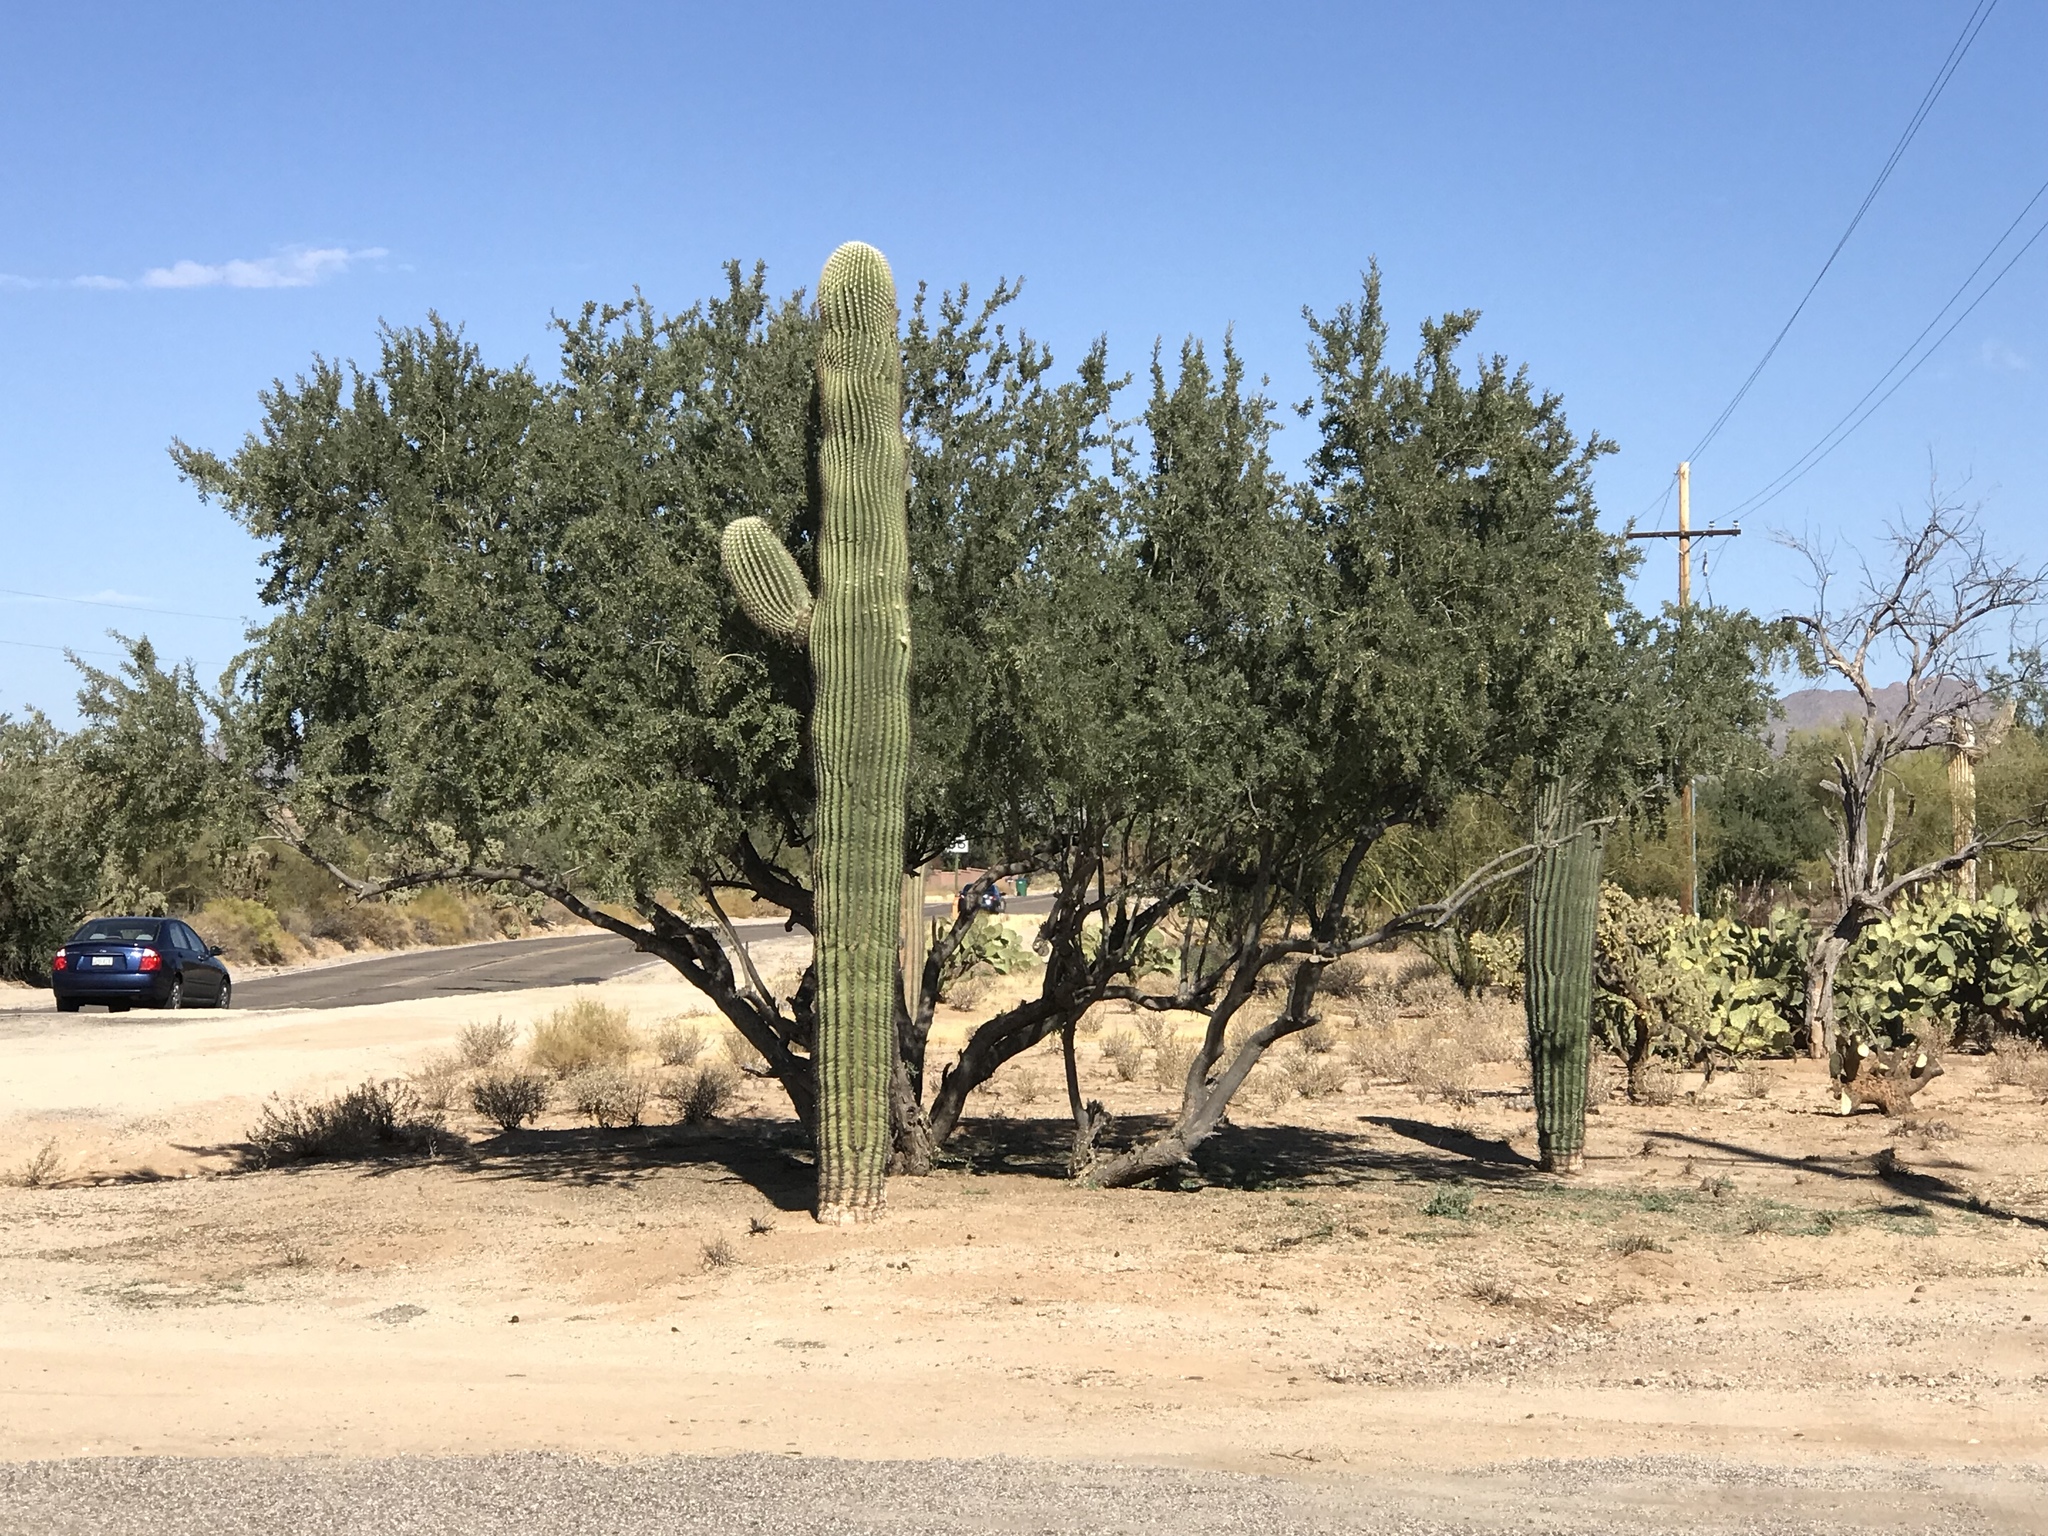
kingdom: Plantae
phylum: Tracheophyta
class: Magnoliopsida
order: Caryophyllales
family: Cactaceae
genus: Carnegiea
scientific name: Carnegiea gigantea
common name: Saguaro
